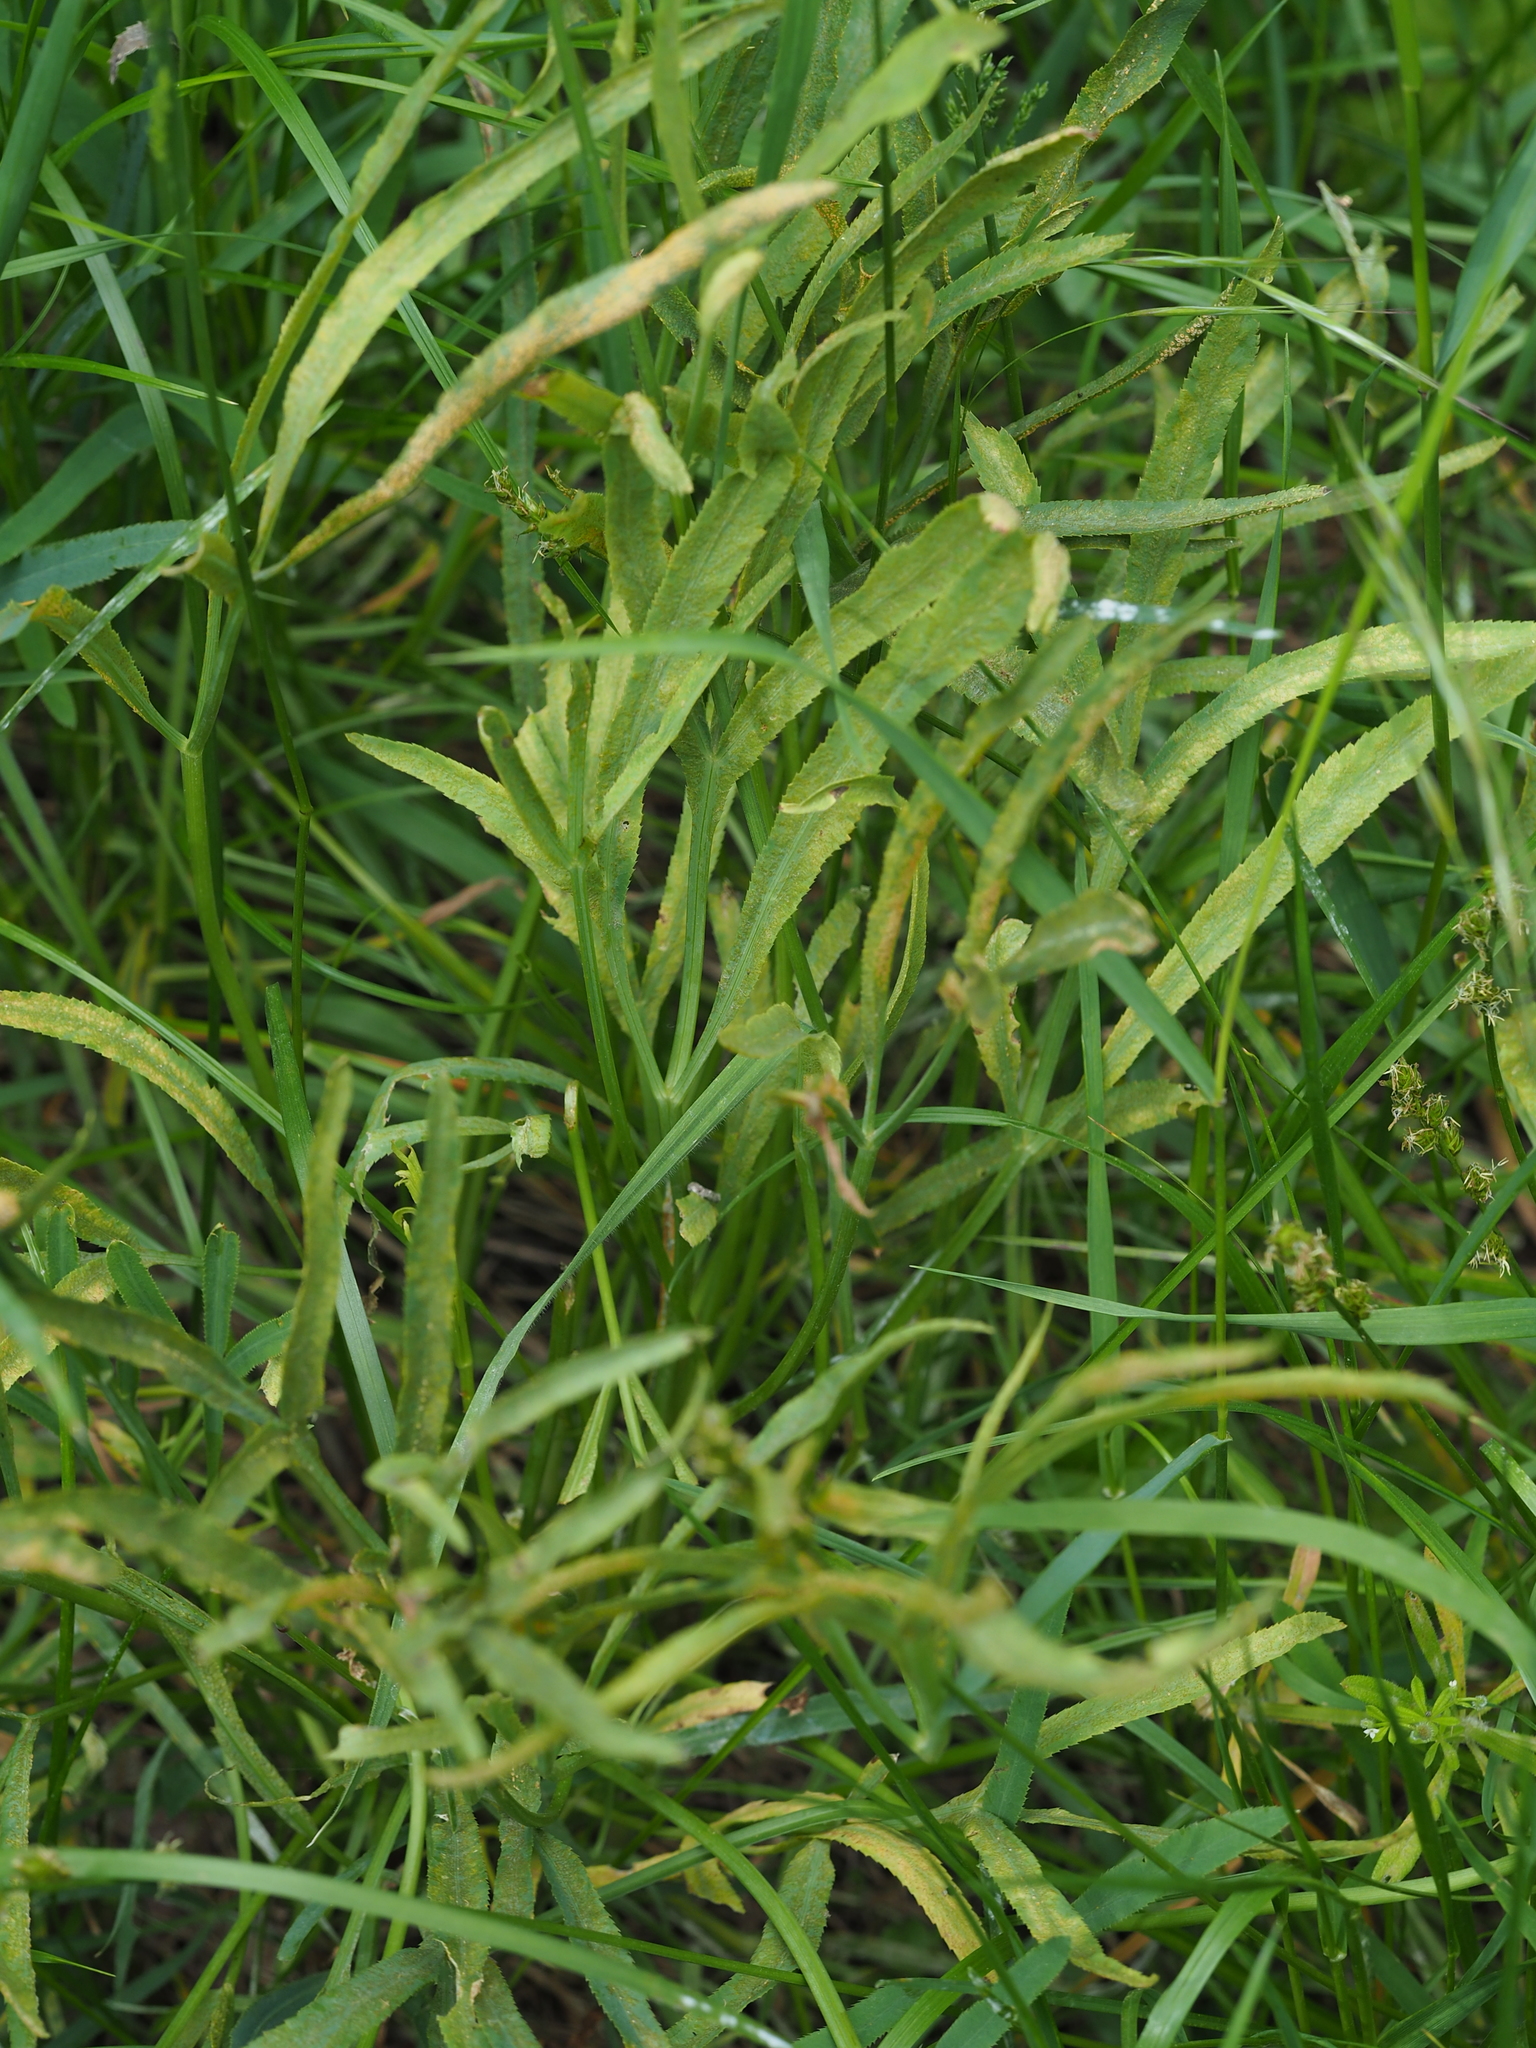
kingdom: Plantae
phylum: Tracheophyta
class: Magnoliopsida
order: Apiales
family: Apiaceae
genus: Falcaria
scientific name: Falcaria vulgaris
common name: Longleaf
